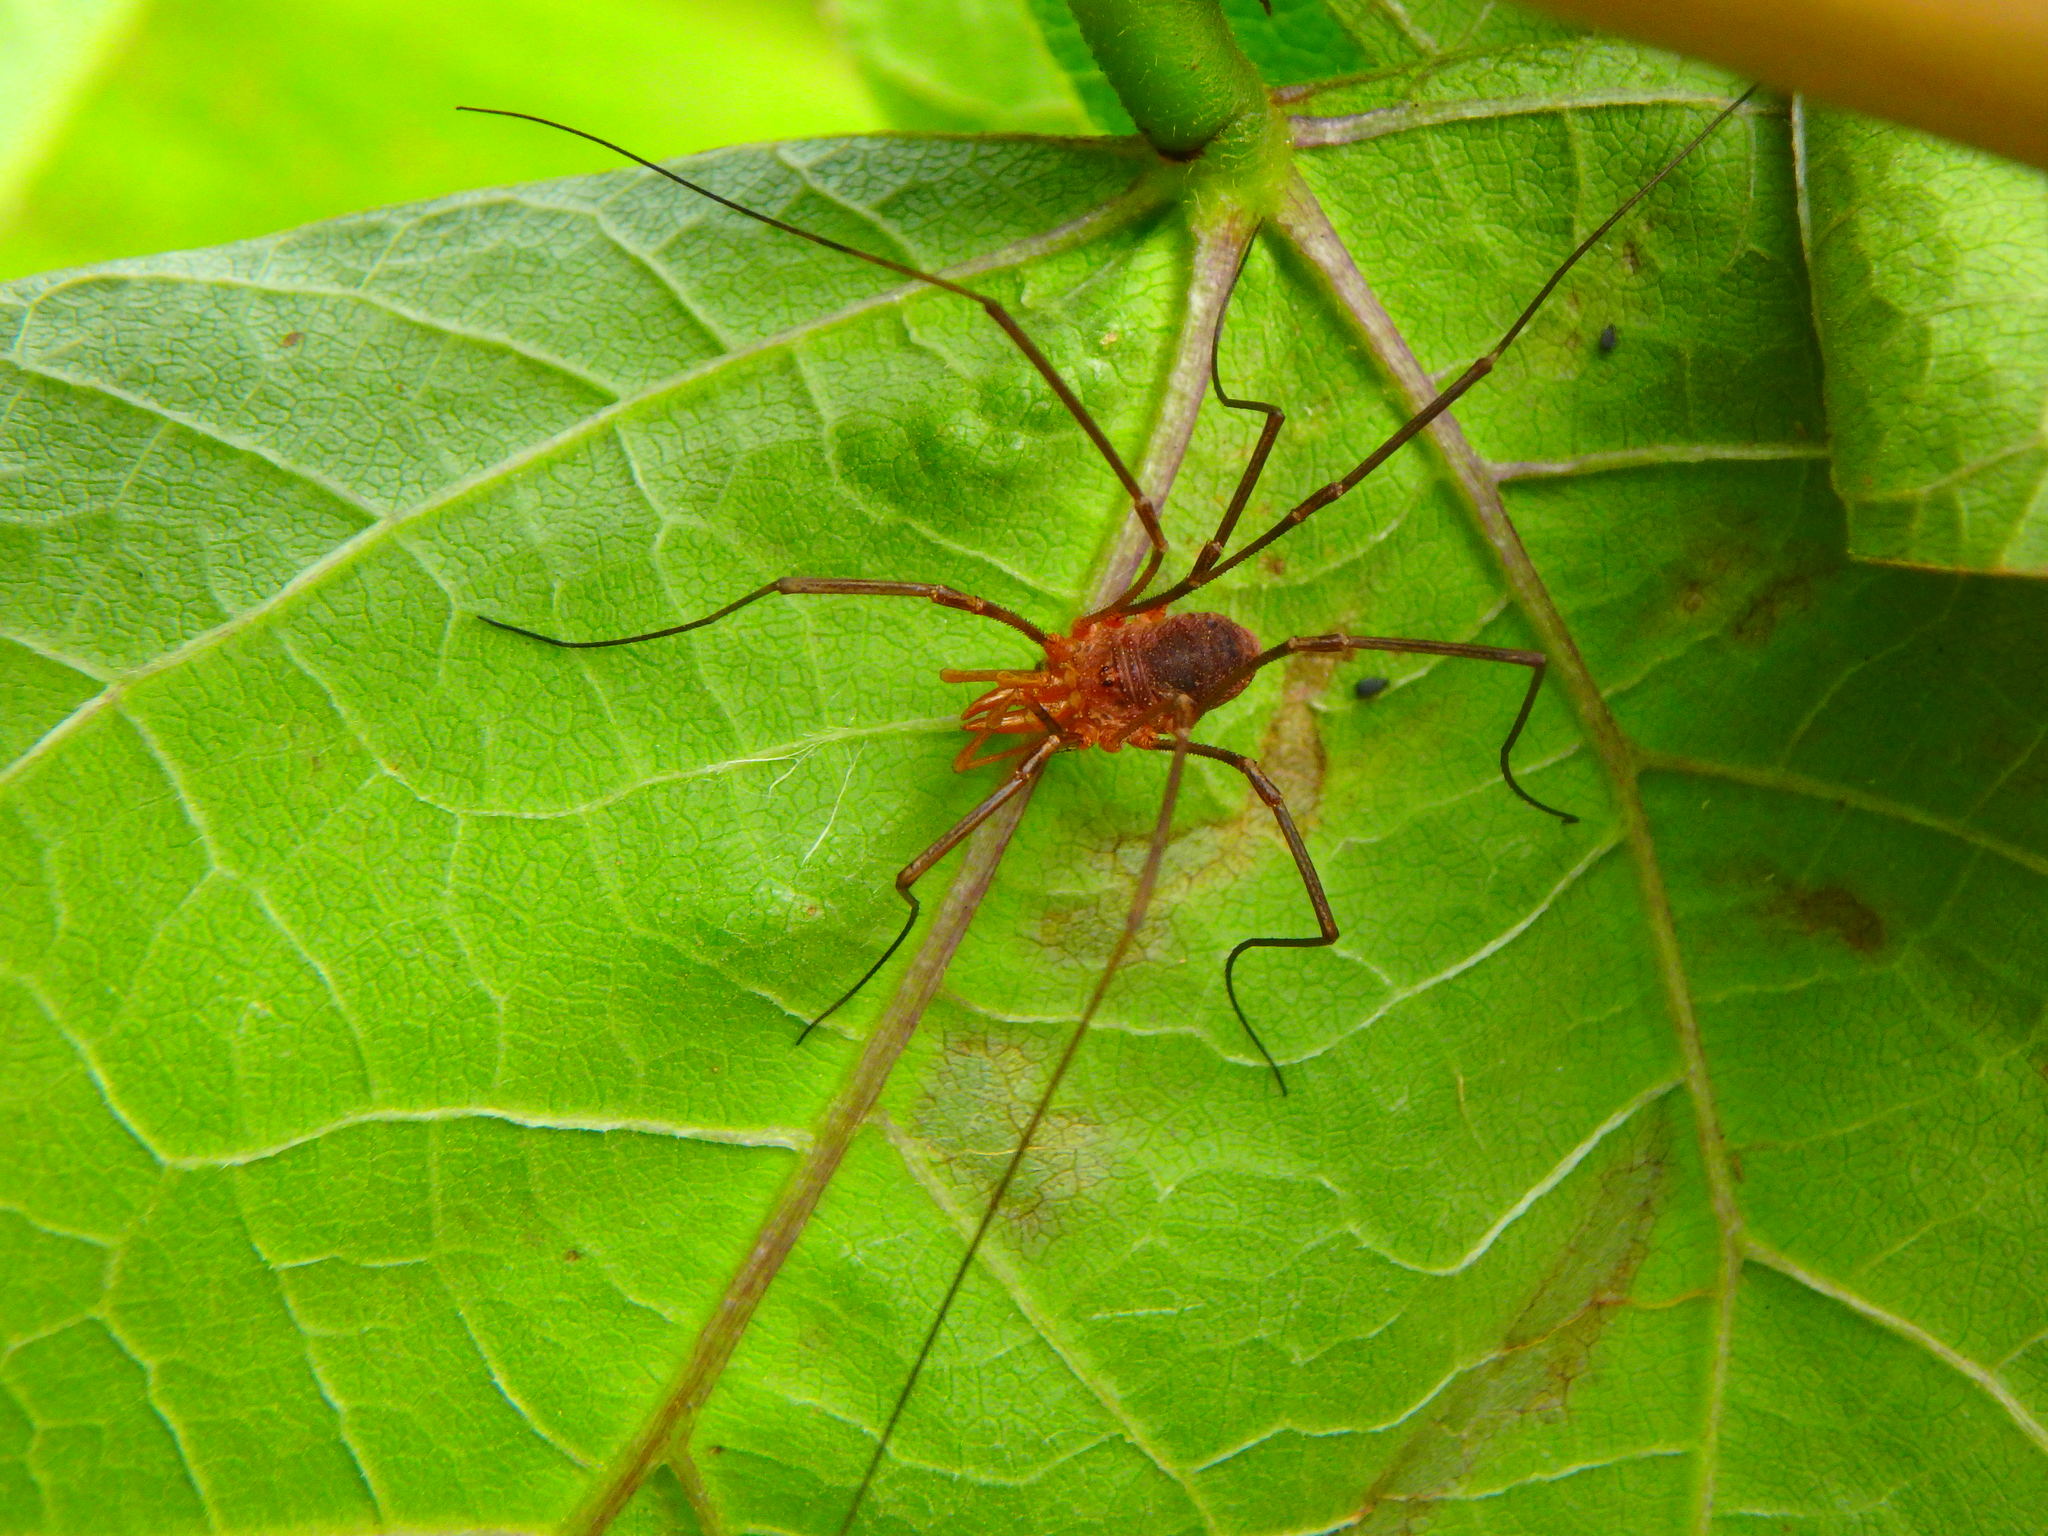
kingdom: Animalia
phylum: Arthropoda
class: Arachnida
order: Opiliones
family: Phalangiidae
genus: Phalangium
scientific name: Phalangium opilio
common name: Daddy longleg
